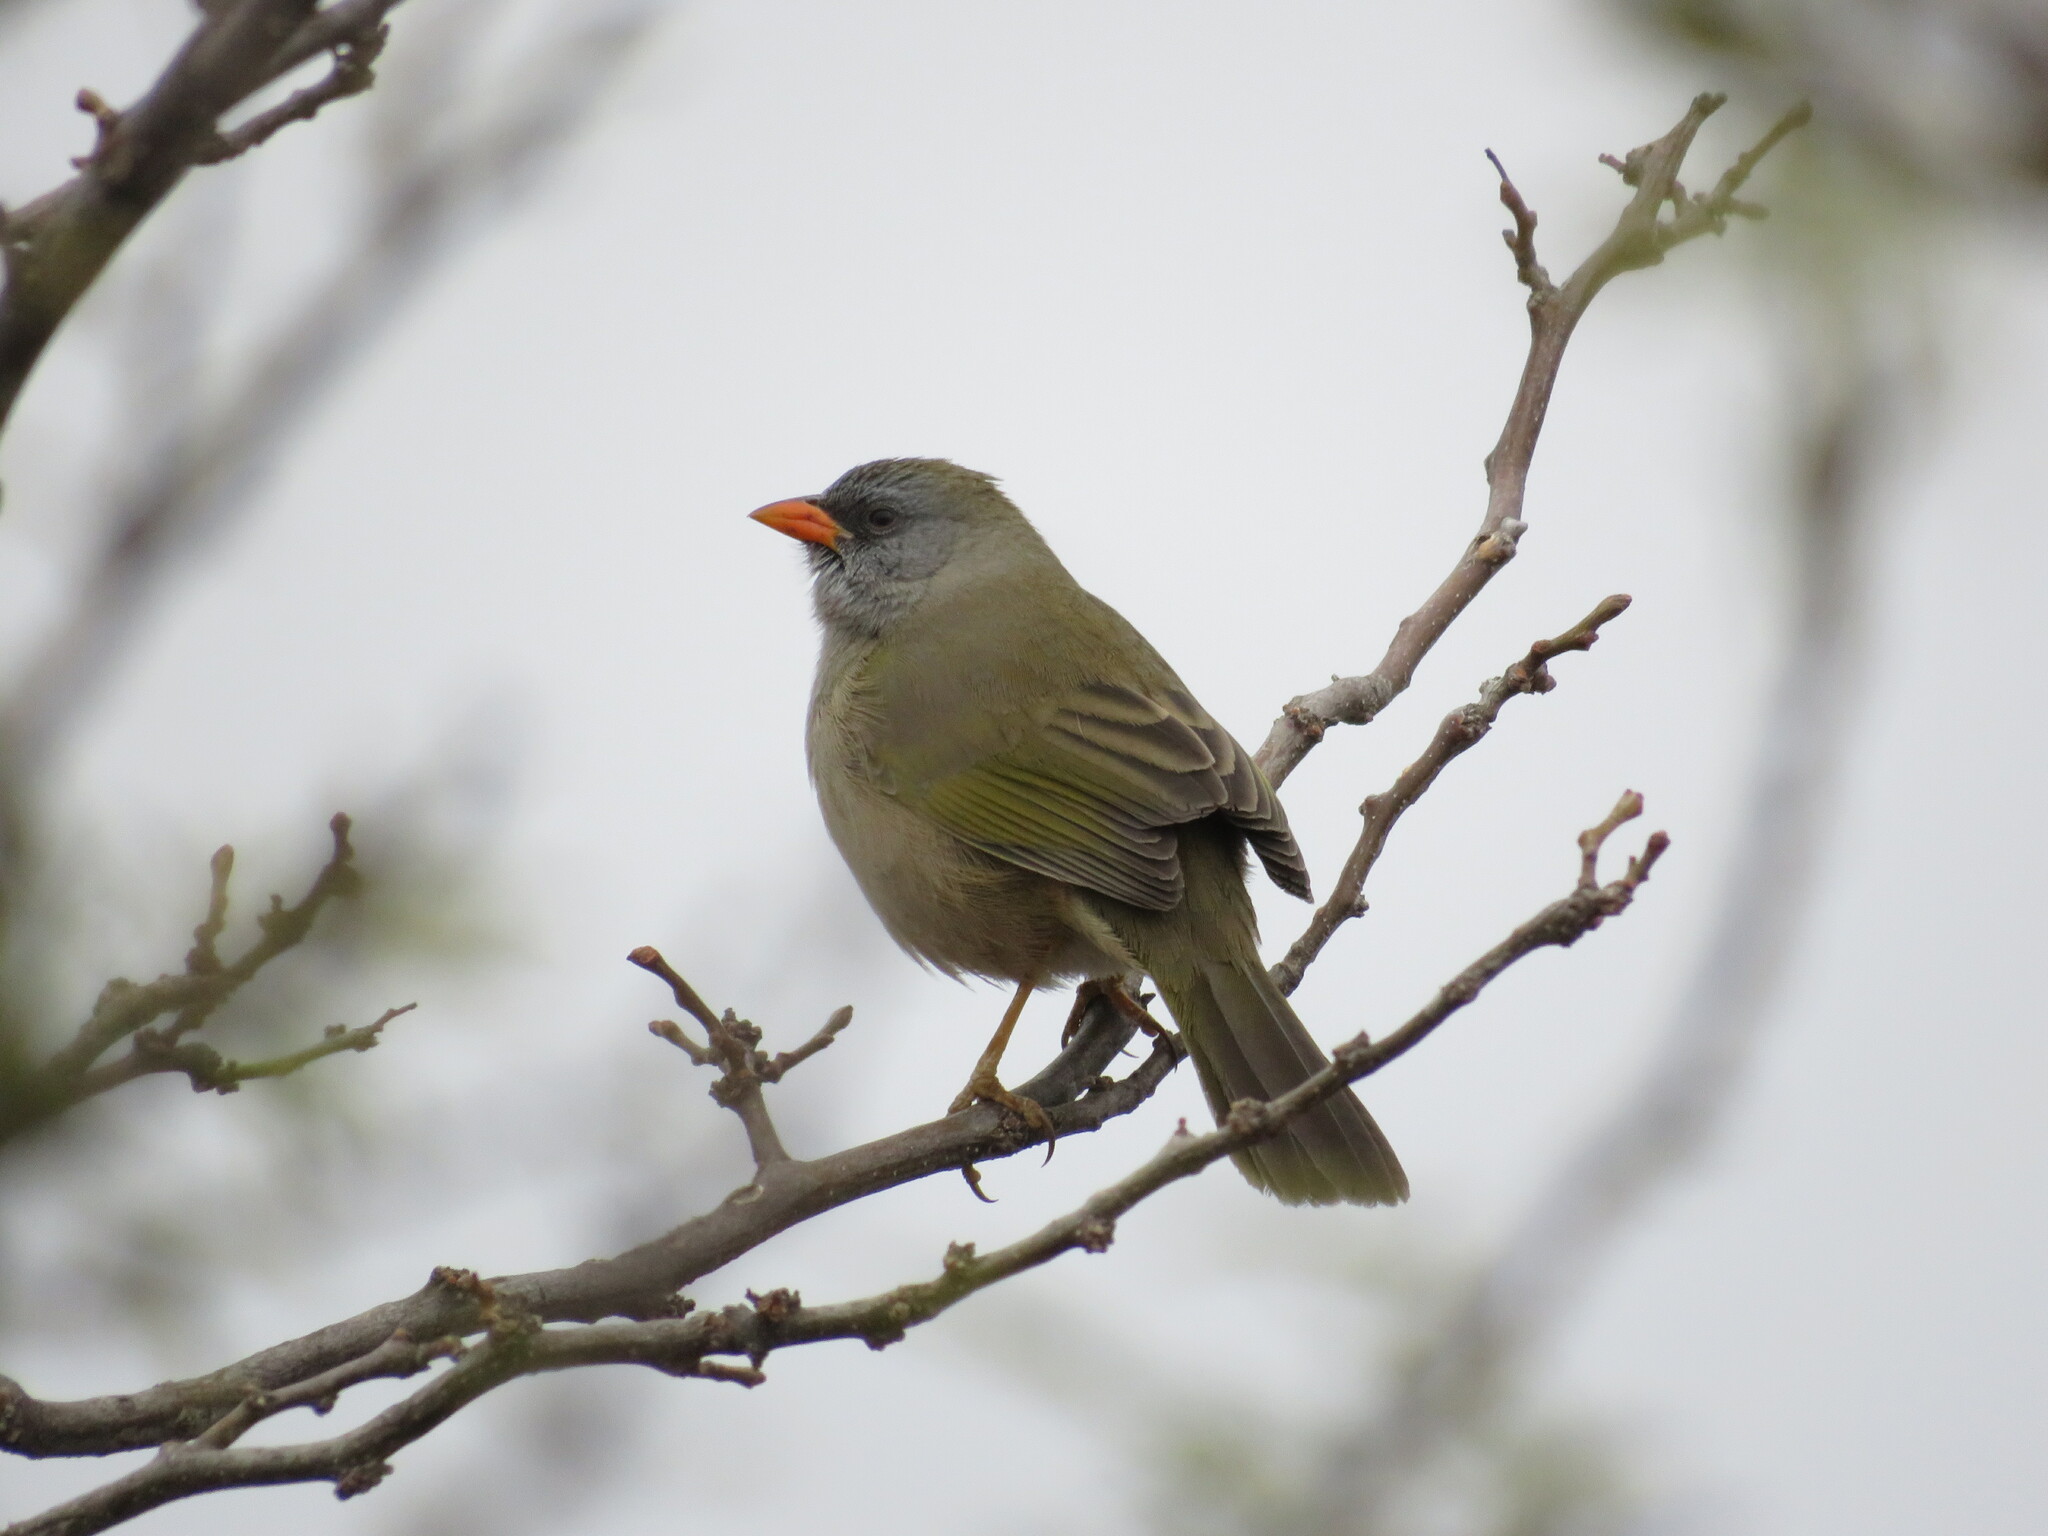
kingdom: Animalia
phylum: Chordata
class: Aves
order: Passeriformes
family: Thraupidae
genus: Embernagra
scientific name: Embernagra platensis
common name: Pampa finch
